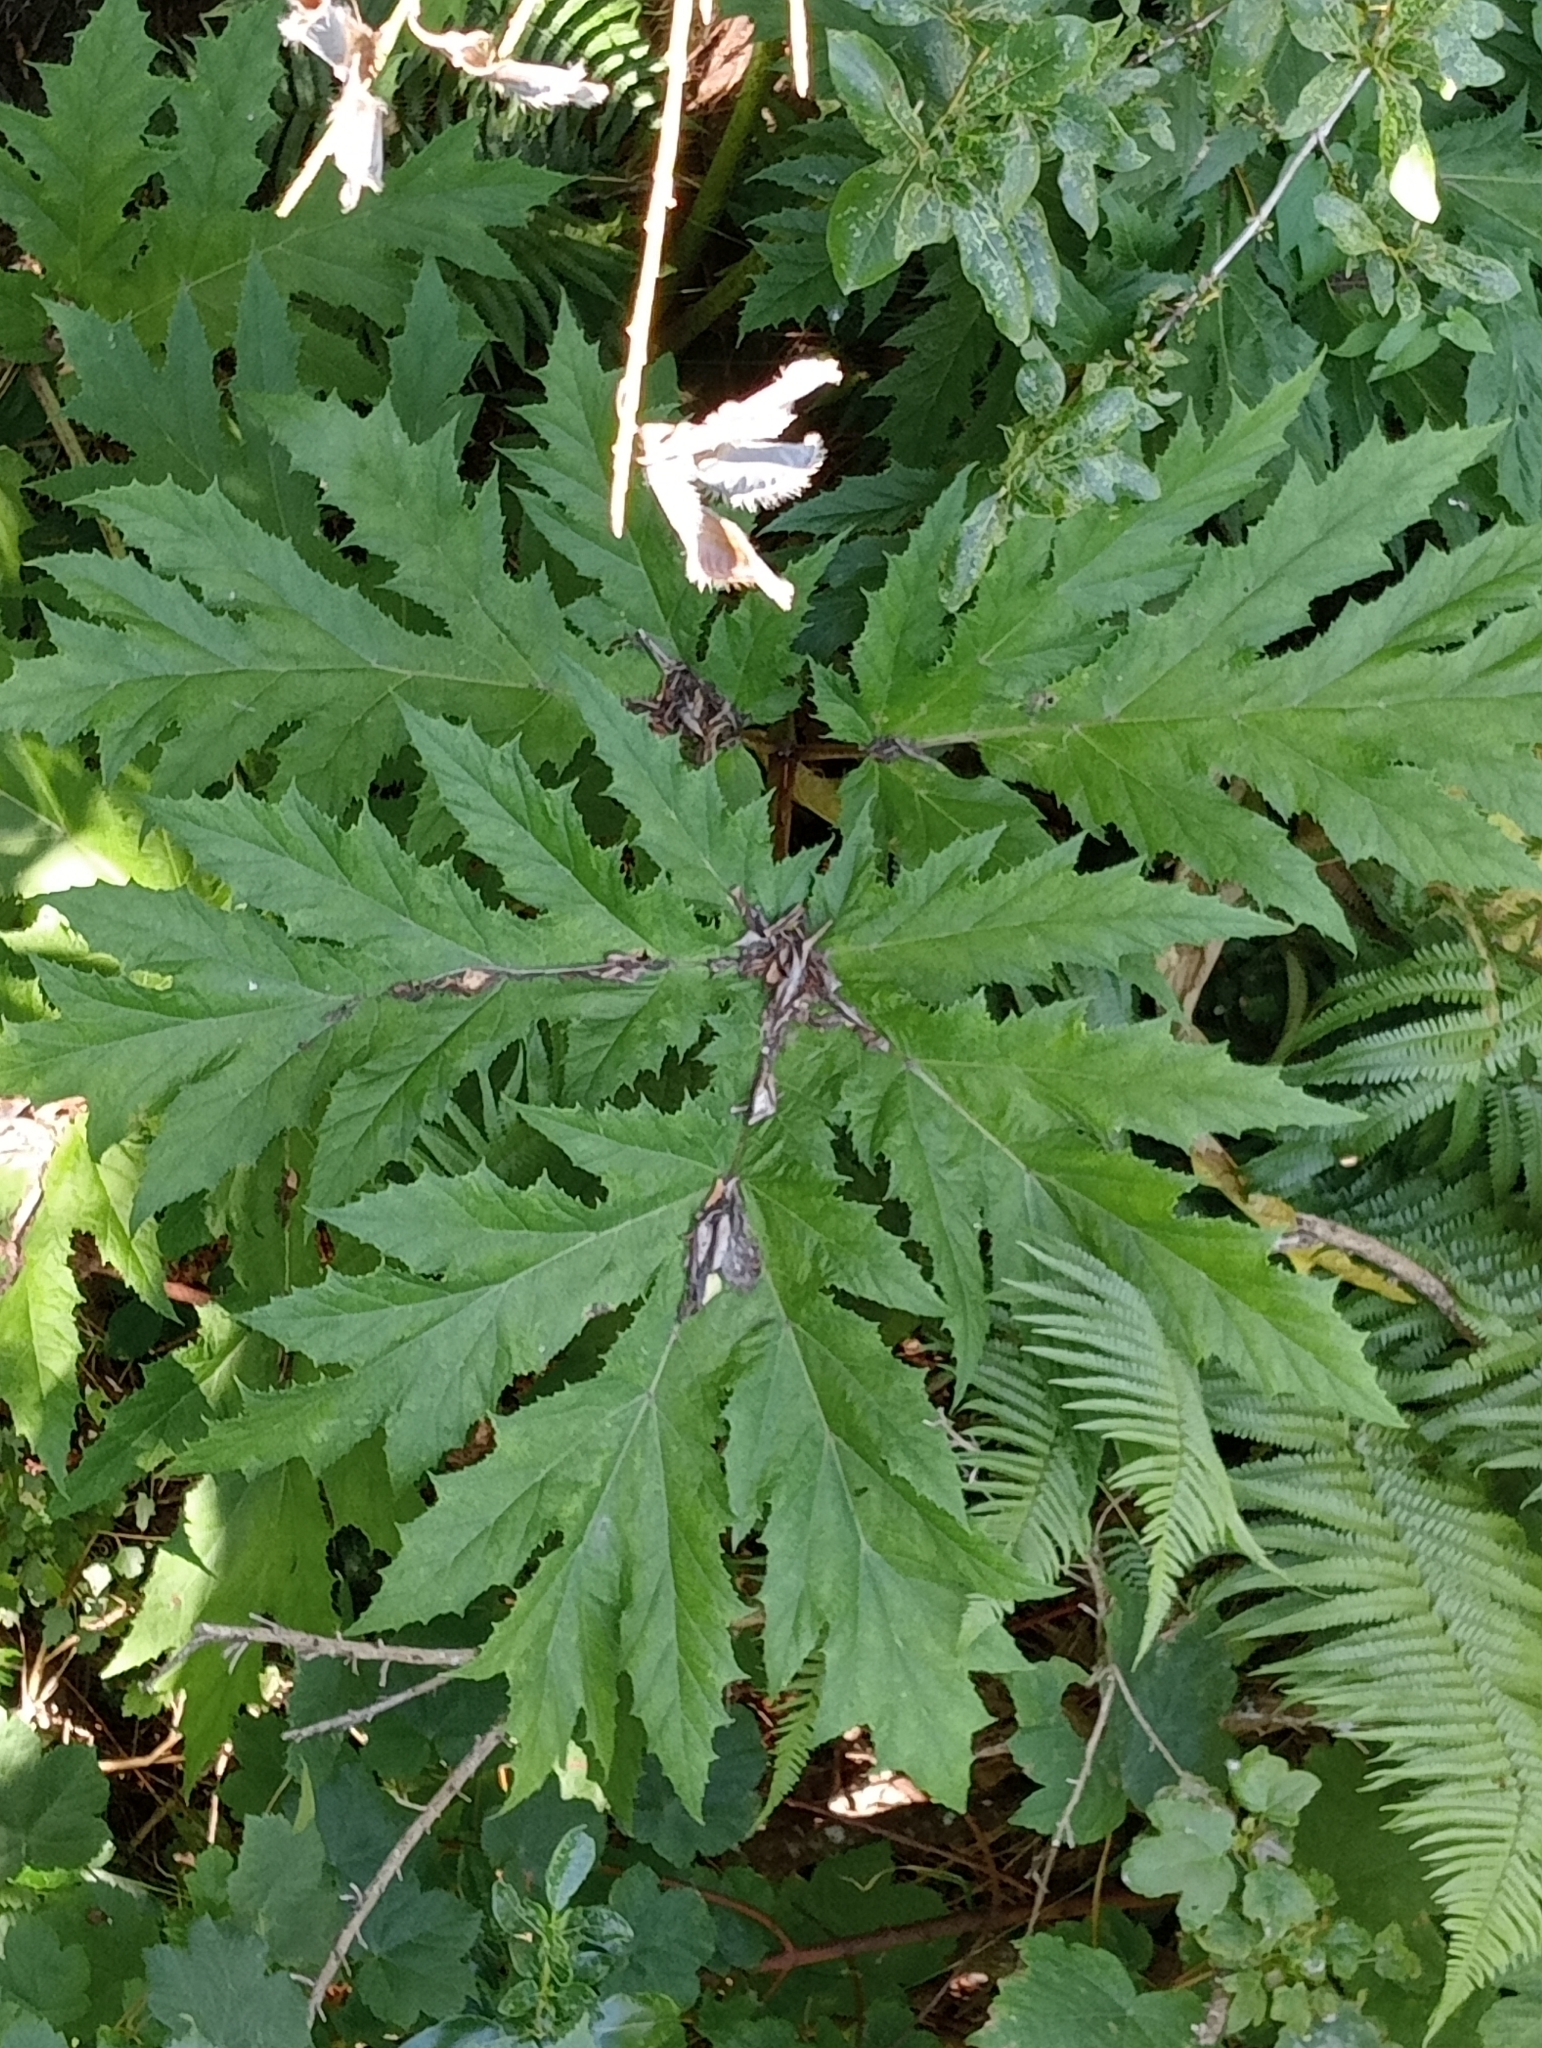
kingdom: Plantae
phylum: Tracheophyta
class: Magnoliopsida
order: Apiales
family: Apiaceae
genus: Heracleum
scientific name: Heracleum mantegazzianum
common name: Giant hogweed
